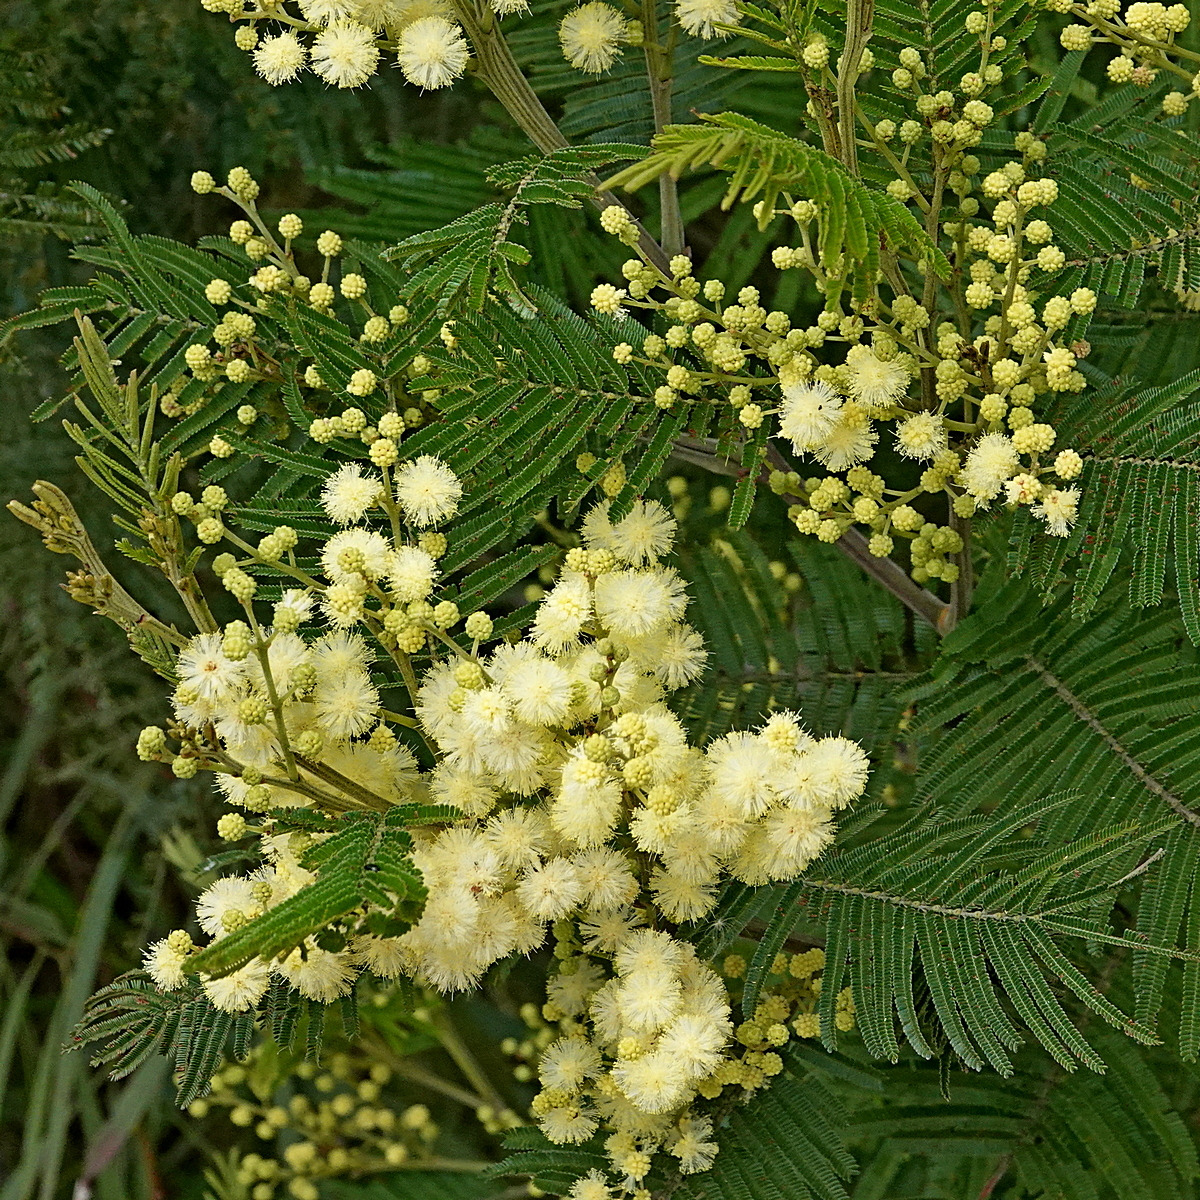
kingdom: Plantae
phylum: Tracheophyta
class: Magnoliopsida
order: Fabales
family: Fabaceae
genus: Acacia
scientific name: Acacia mearnsii
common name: Black wattle
